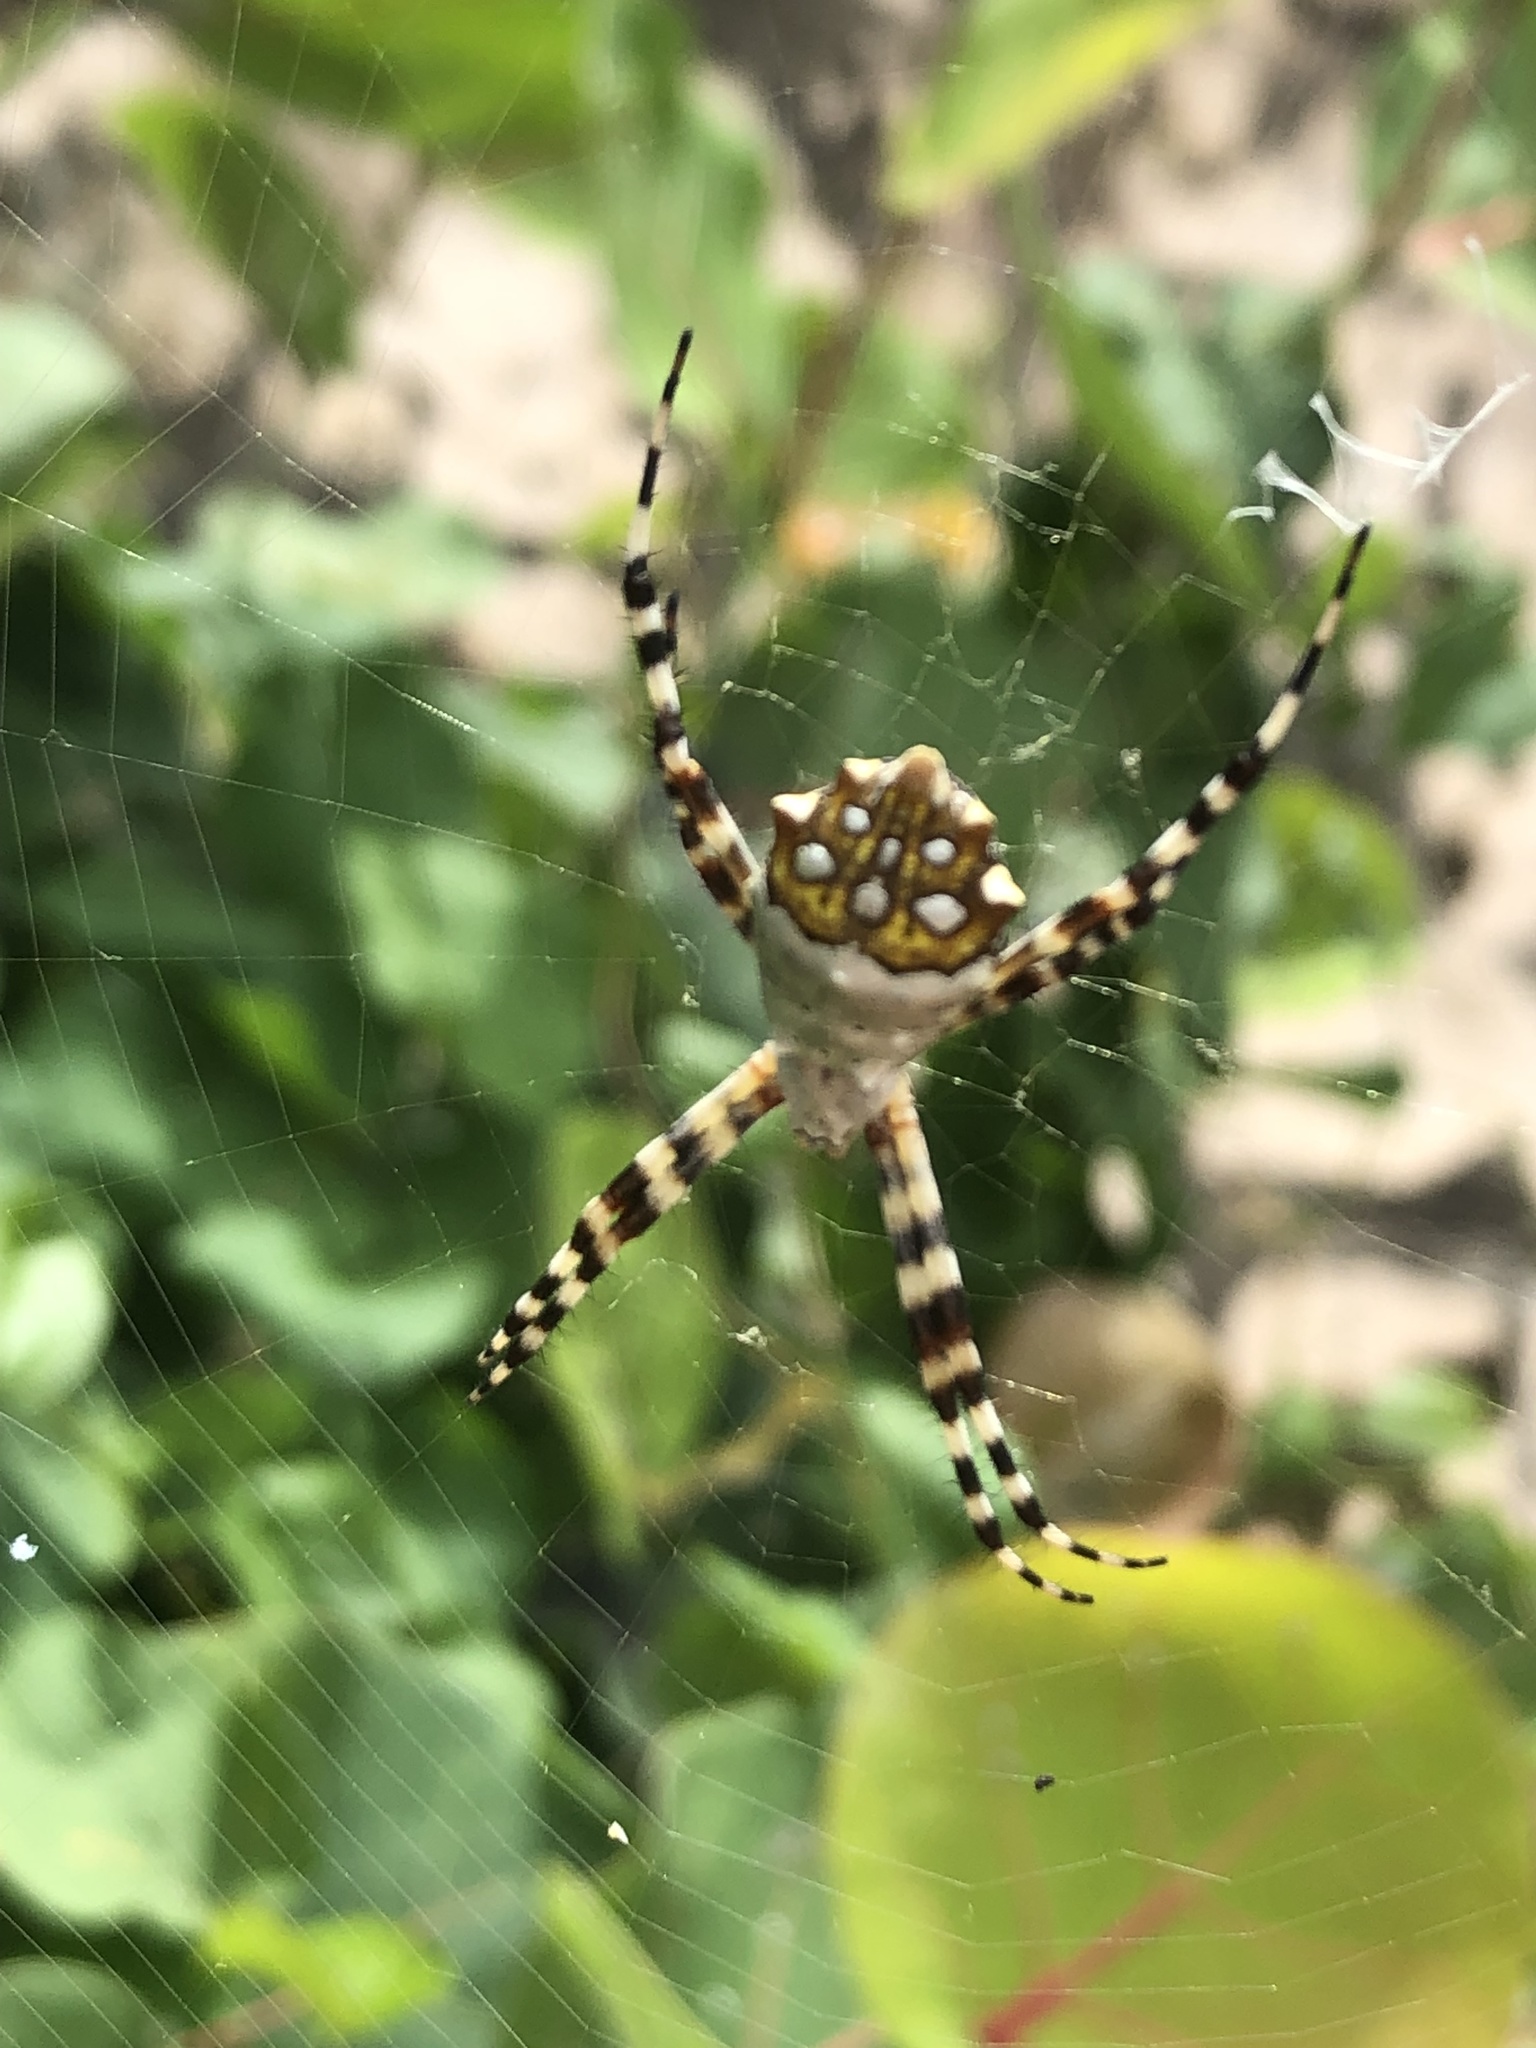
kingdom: Animalia
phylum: Arthropoda
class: Arachnida
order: Araneae
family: Araneidae
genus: Argiope
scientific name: Argiope argentata
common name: Orb weavers
